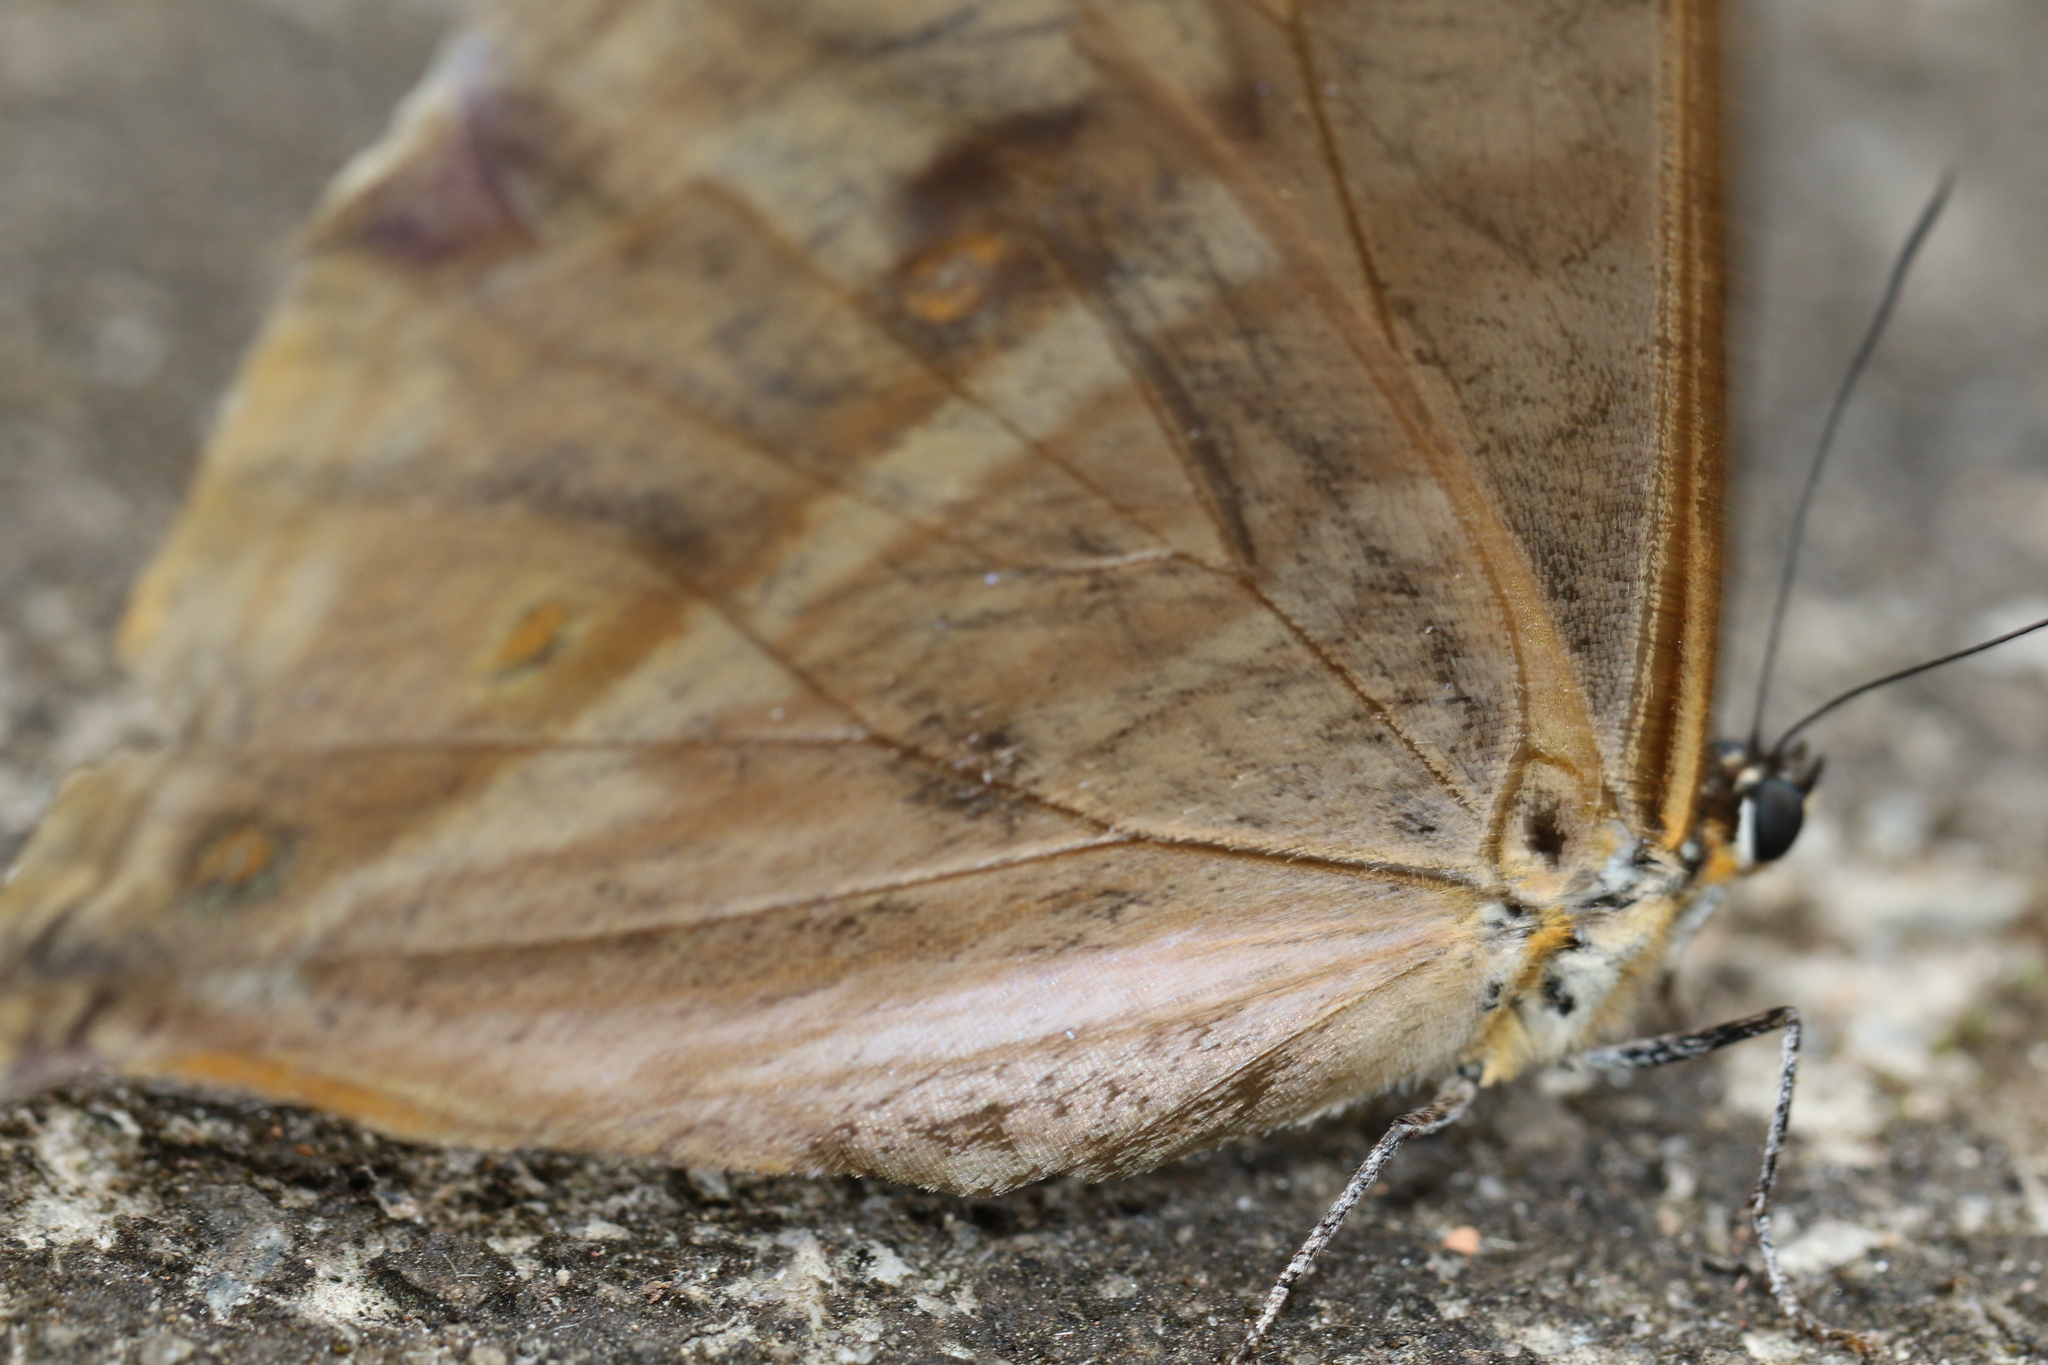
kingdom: Animalia
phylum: Arthropoda
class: Insecta
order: Lepidoptera
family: Nymphalidae
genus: Morpho
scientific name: Morpho aega
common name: Aega morpho
